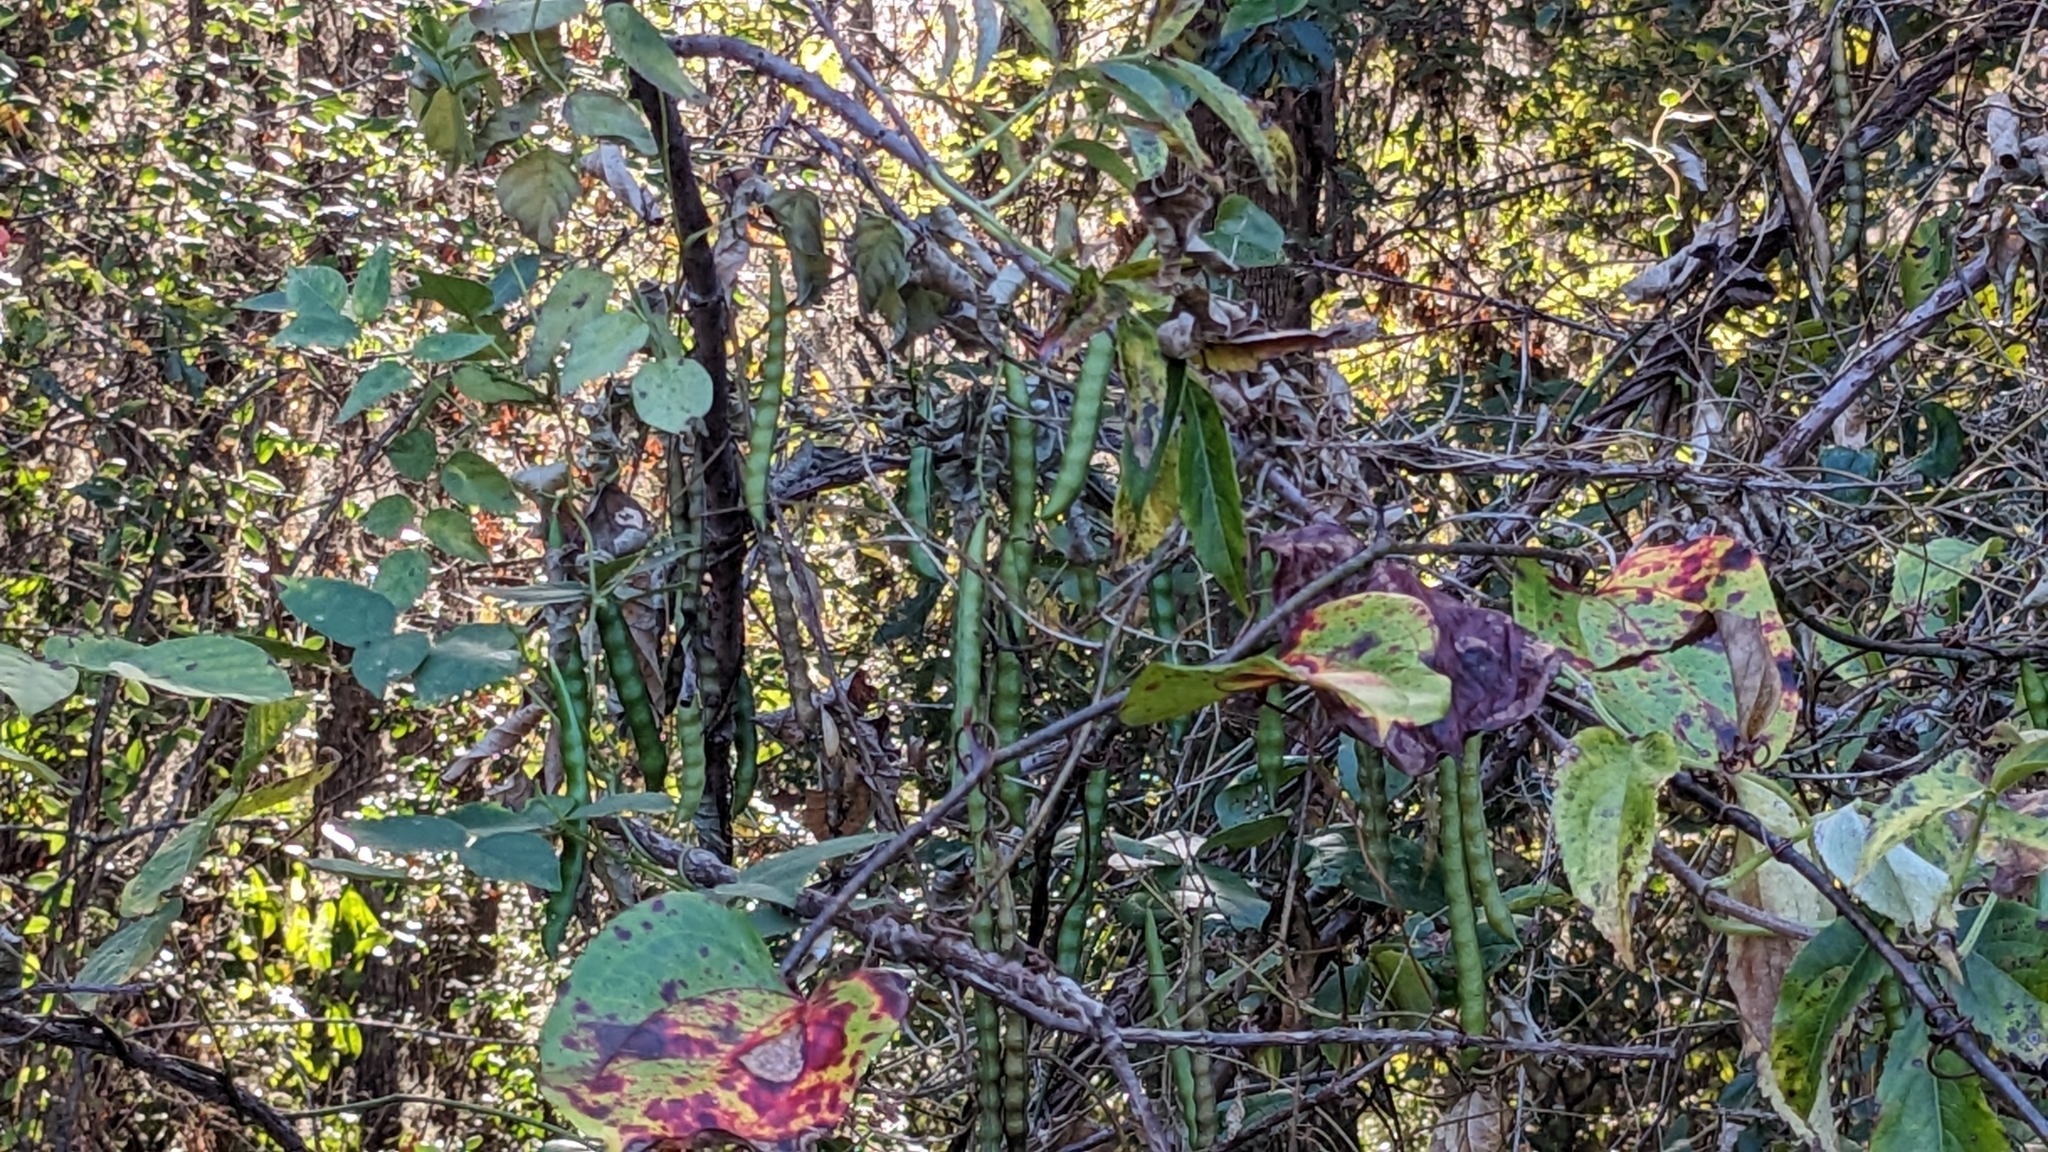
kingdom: Plantae
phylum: Tracheophyta
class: Magnoliopsida
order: Fabales
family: Fabaceae
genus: Apios
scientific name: Apios americana
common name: American potato-bean
